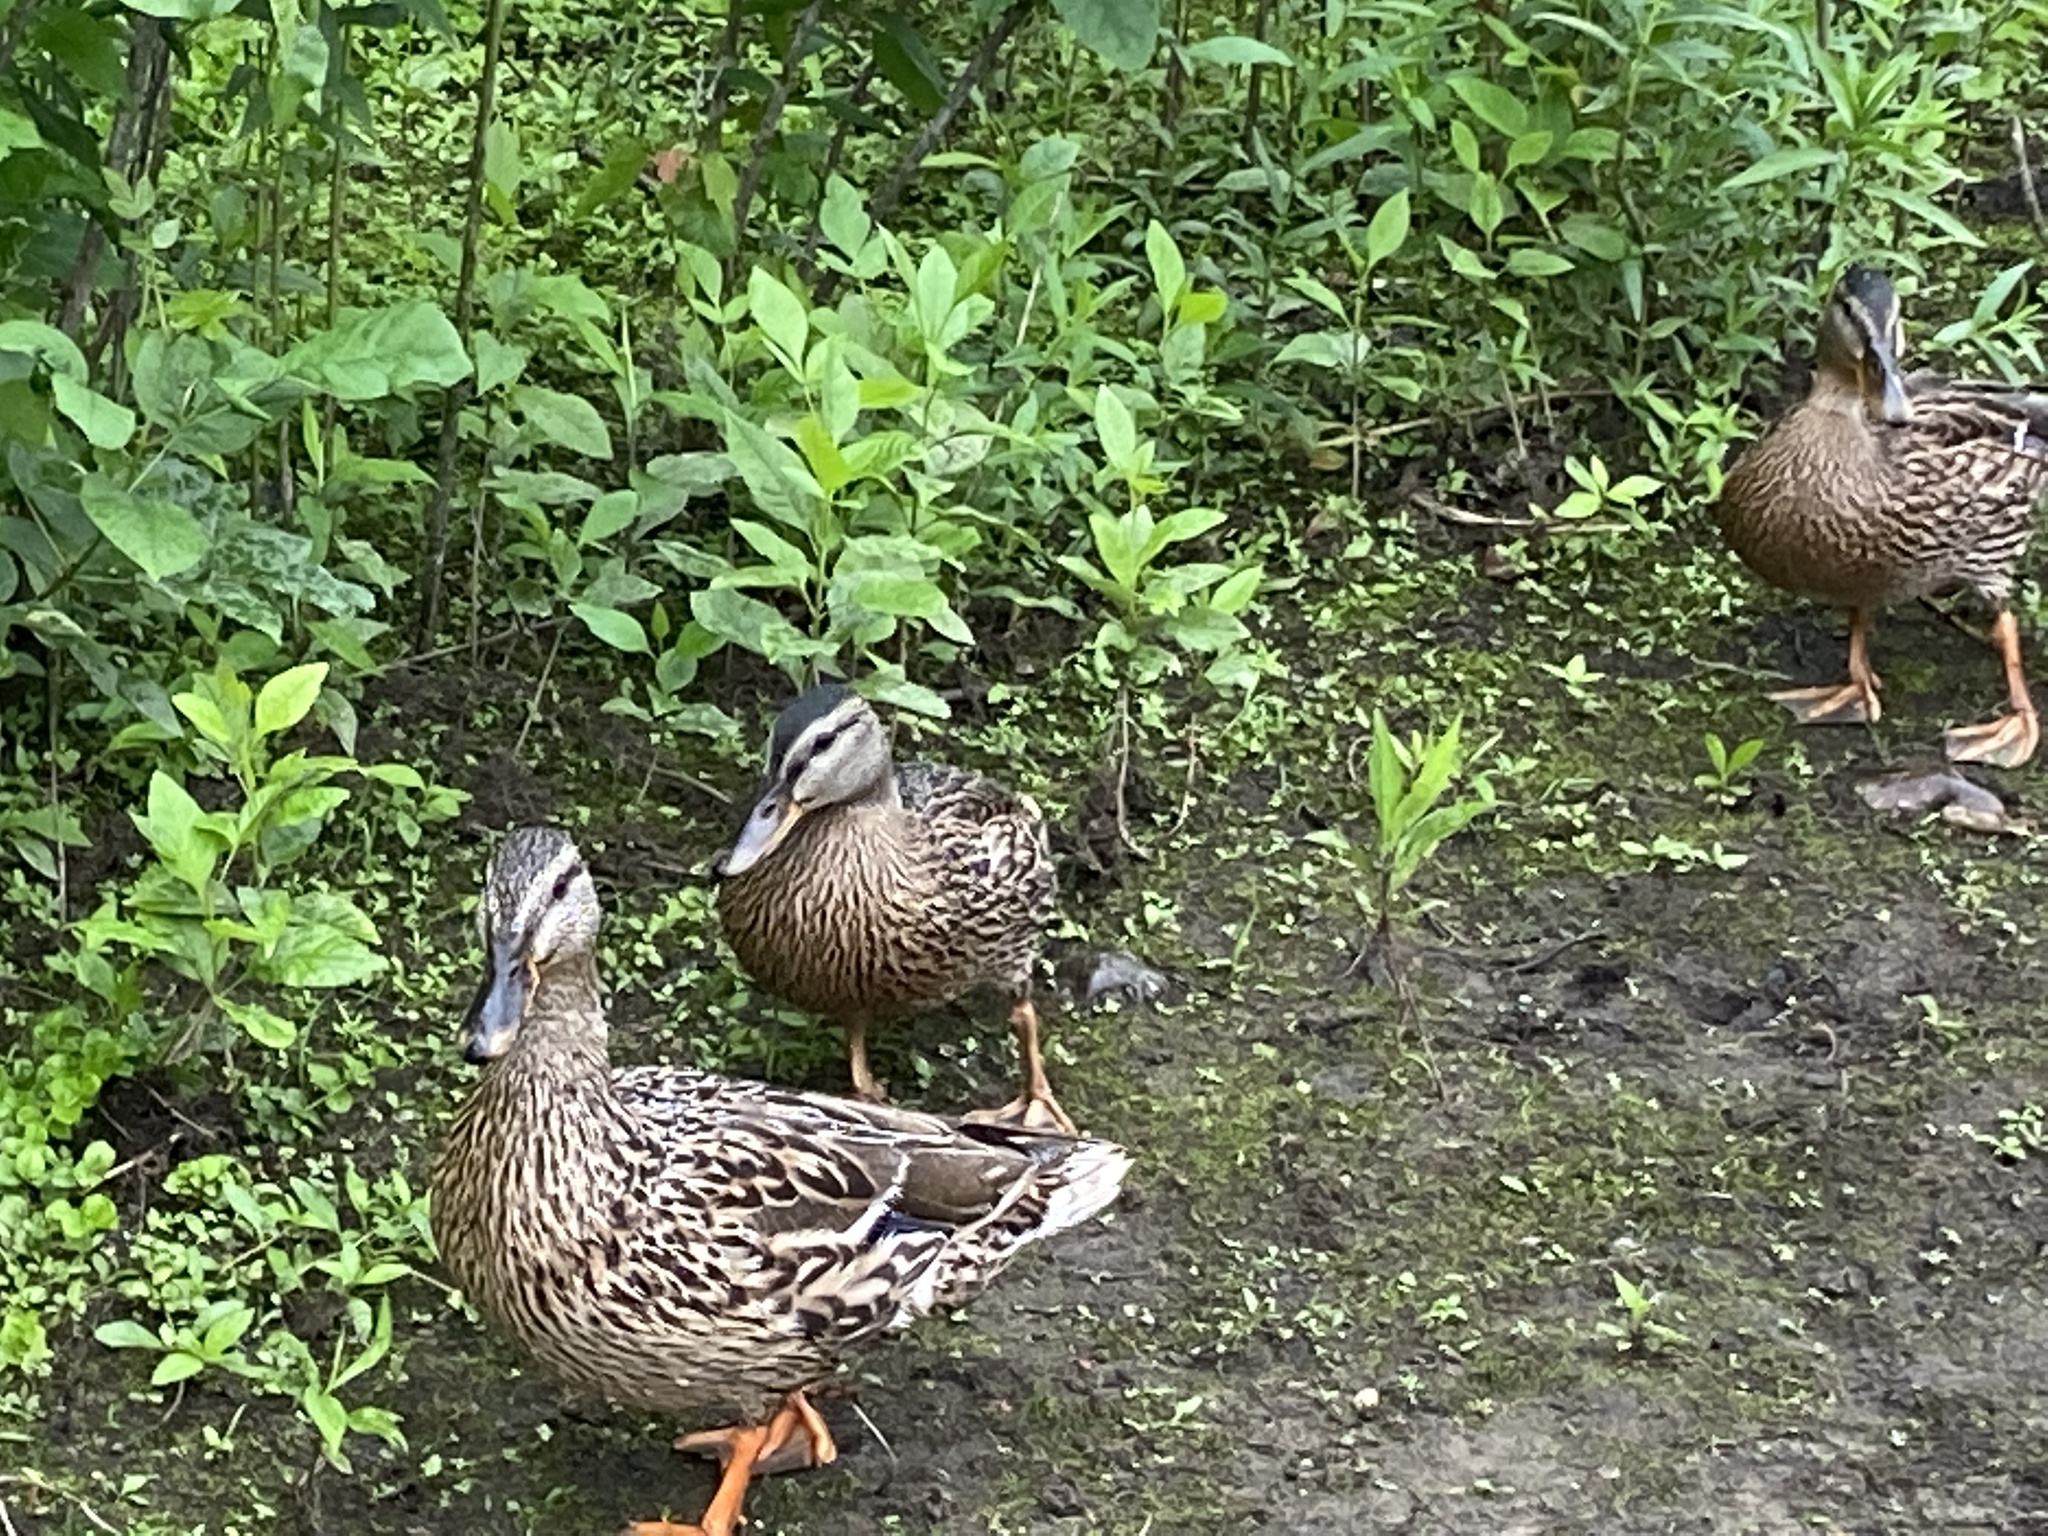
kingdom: Animalia
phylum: Chordata
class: Aves
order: Anseriformes
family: Anatidae
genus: Anas
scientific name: Anas platyrhynchos
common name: Mallard
